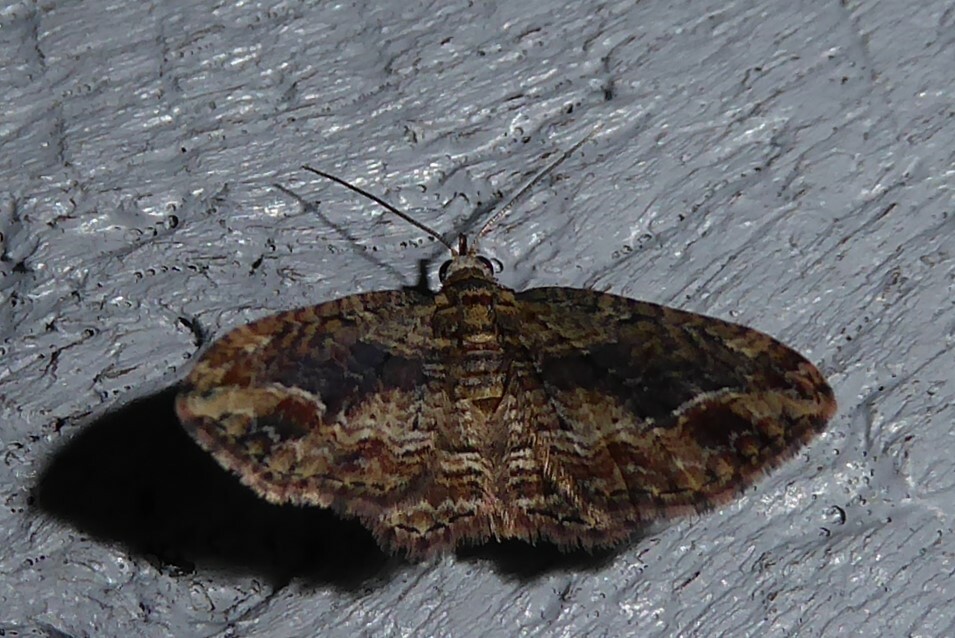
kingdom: Animalia
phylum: Arthropoda
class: Insecta
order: Lepidoptera
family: Geometridae
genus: Chloroclystis
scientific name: Chloroclystis filata
